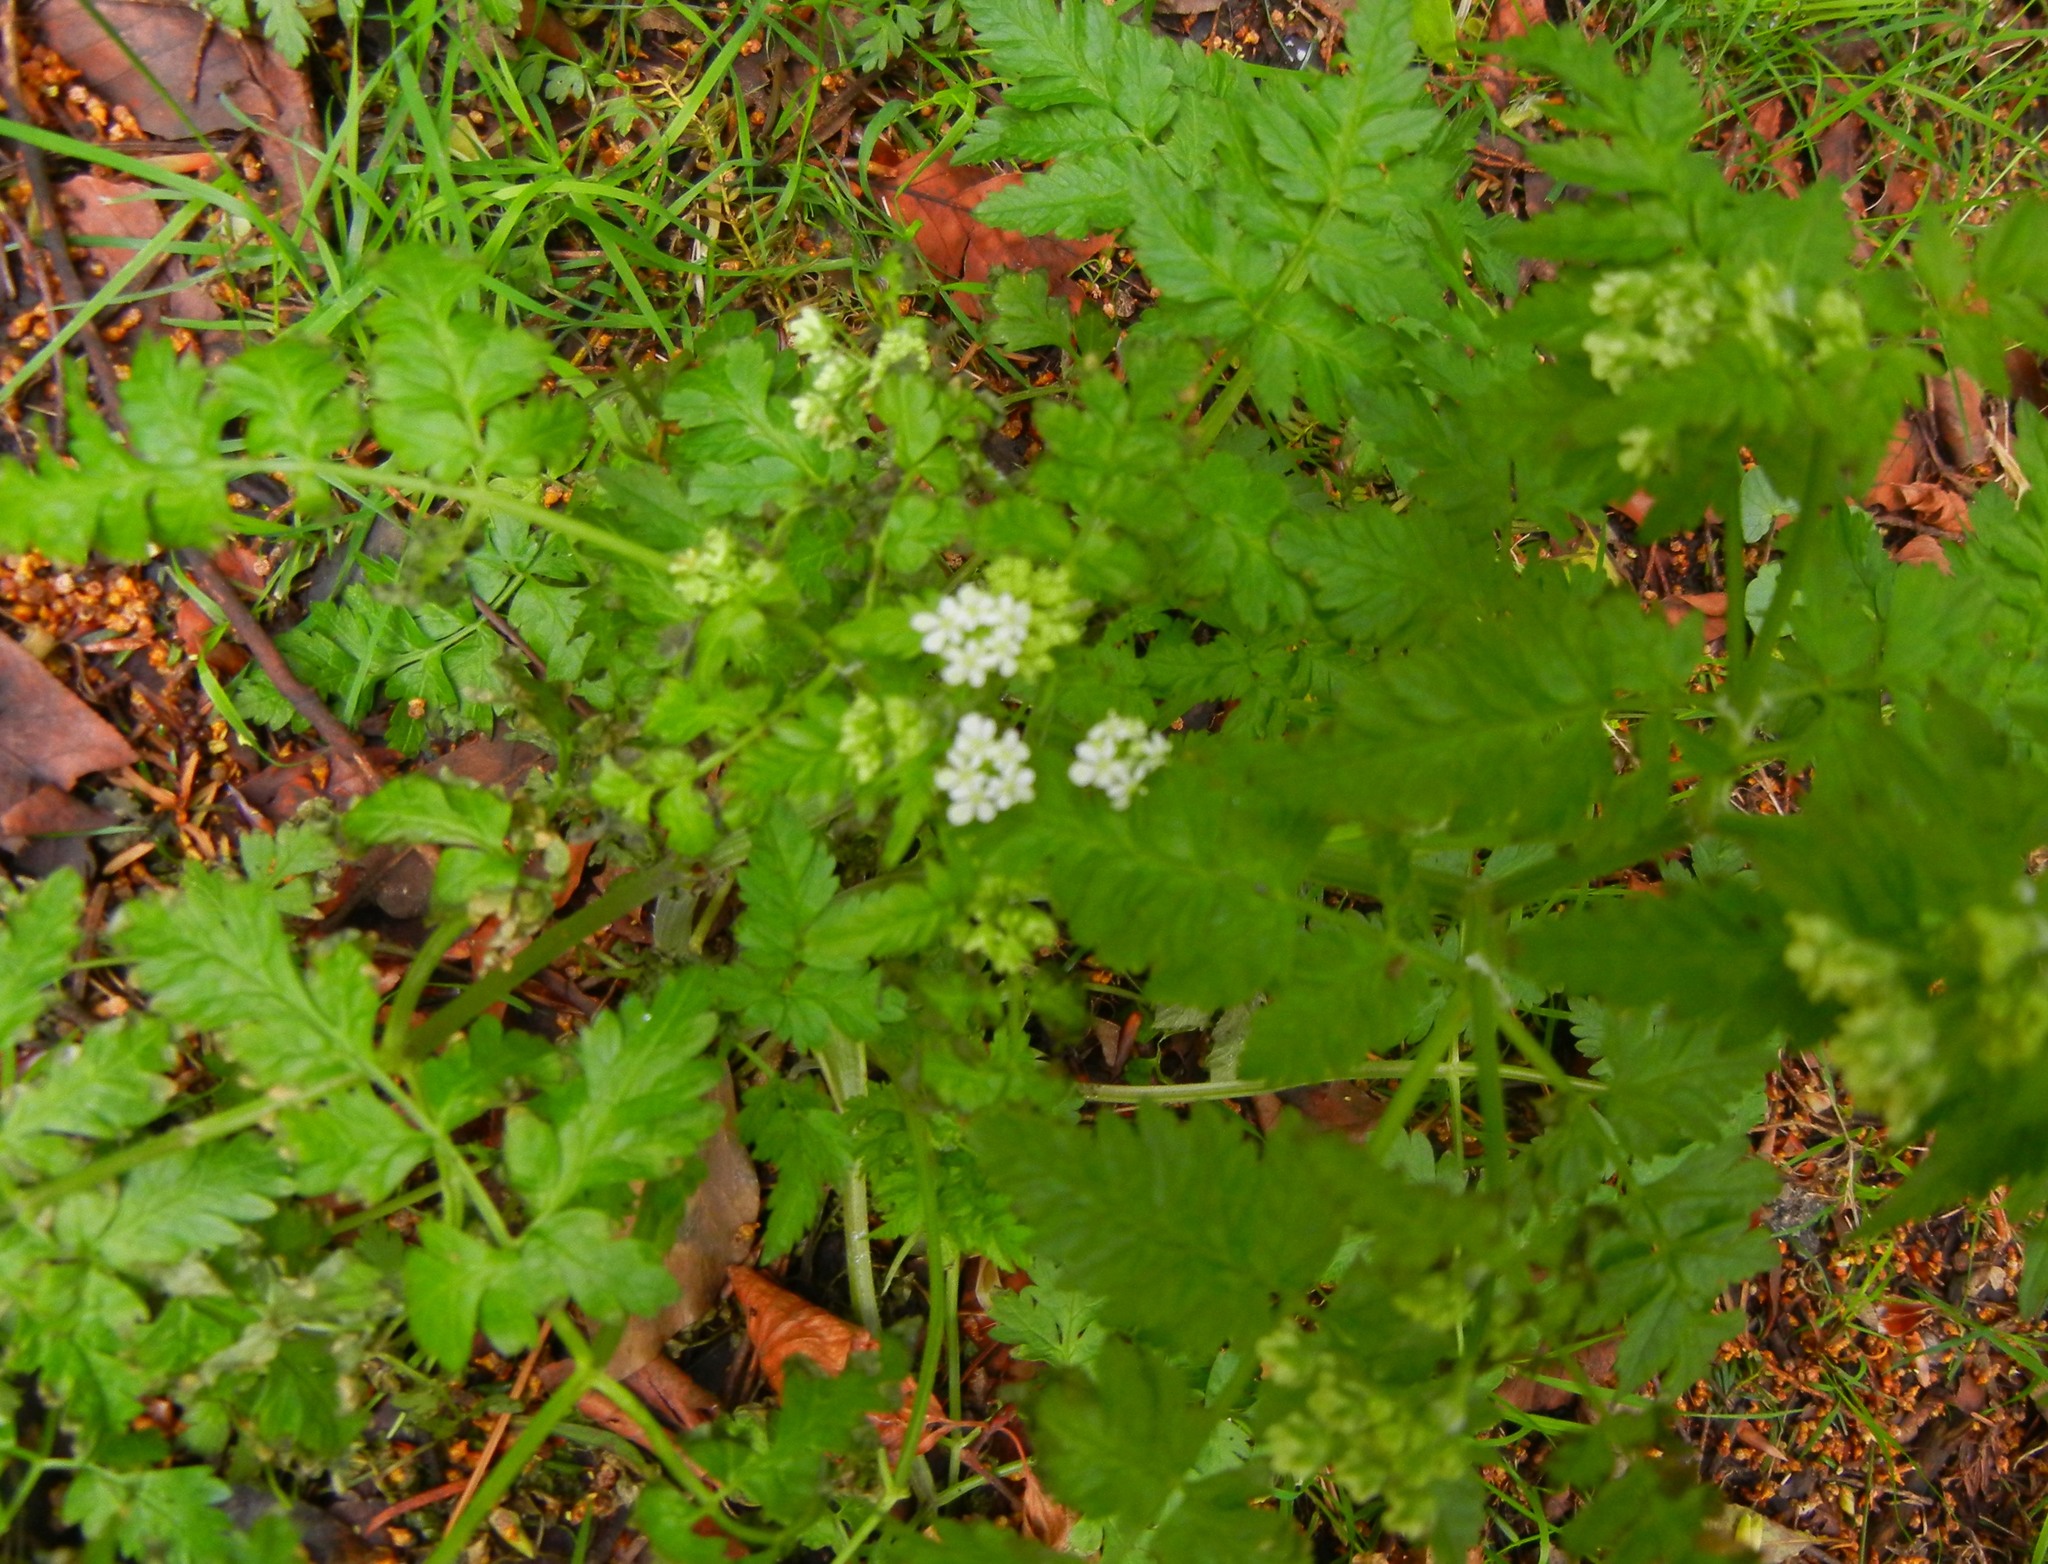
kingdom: Plantae
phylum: Tracheophyta
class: Magnoliopsida
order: Apiales
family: Apiaceae
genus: Anthriscus
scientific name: Anthriscus sylvestris
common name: Cow parsley
